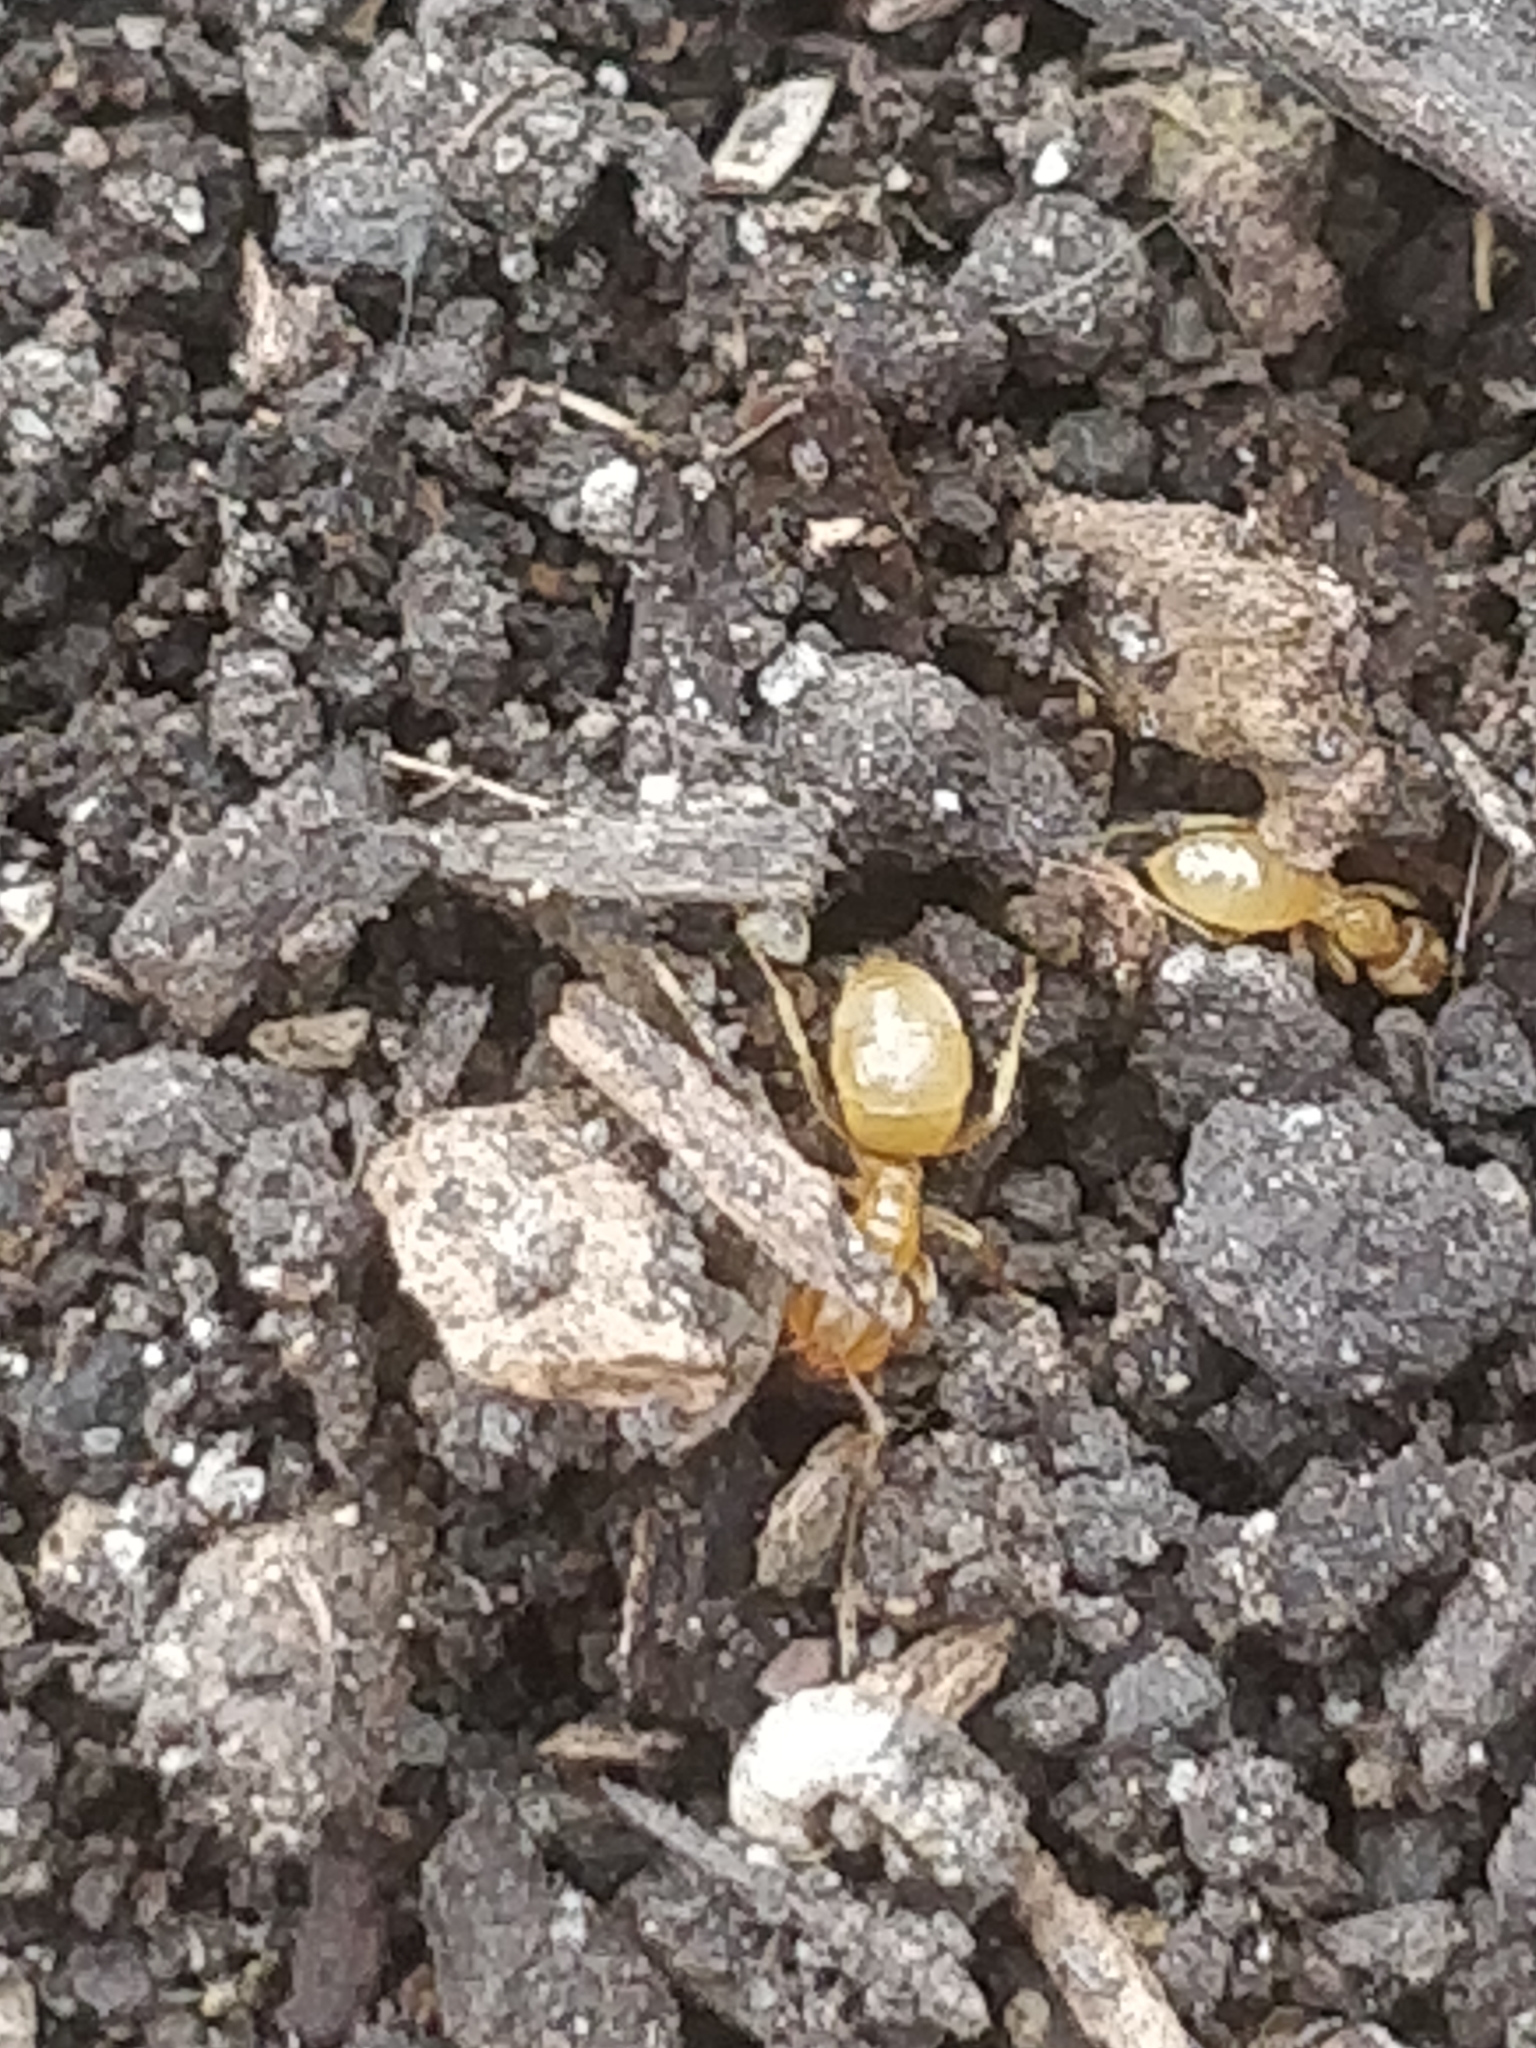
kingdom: Animalia
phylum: Arthropoda
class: Insecta
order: Hymenoptera
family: Formicidae
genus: Lasius
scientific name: Lasius
